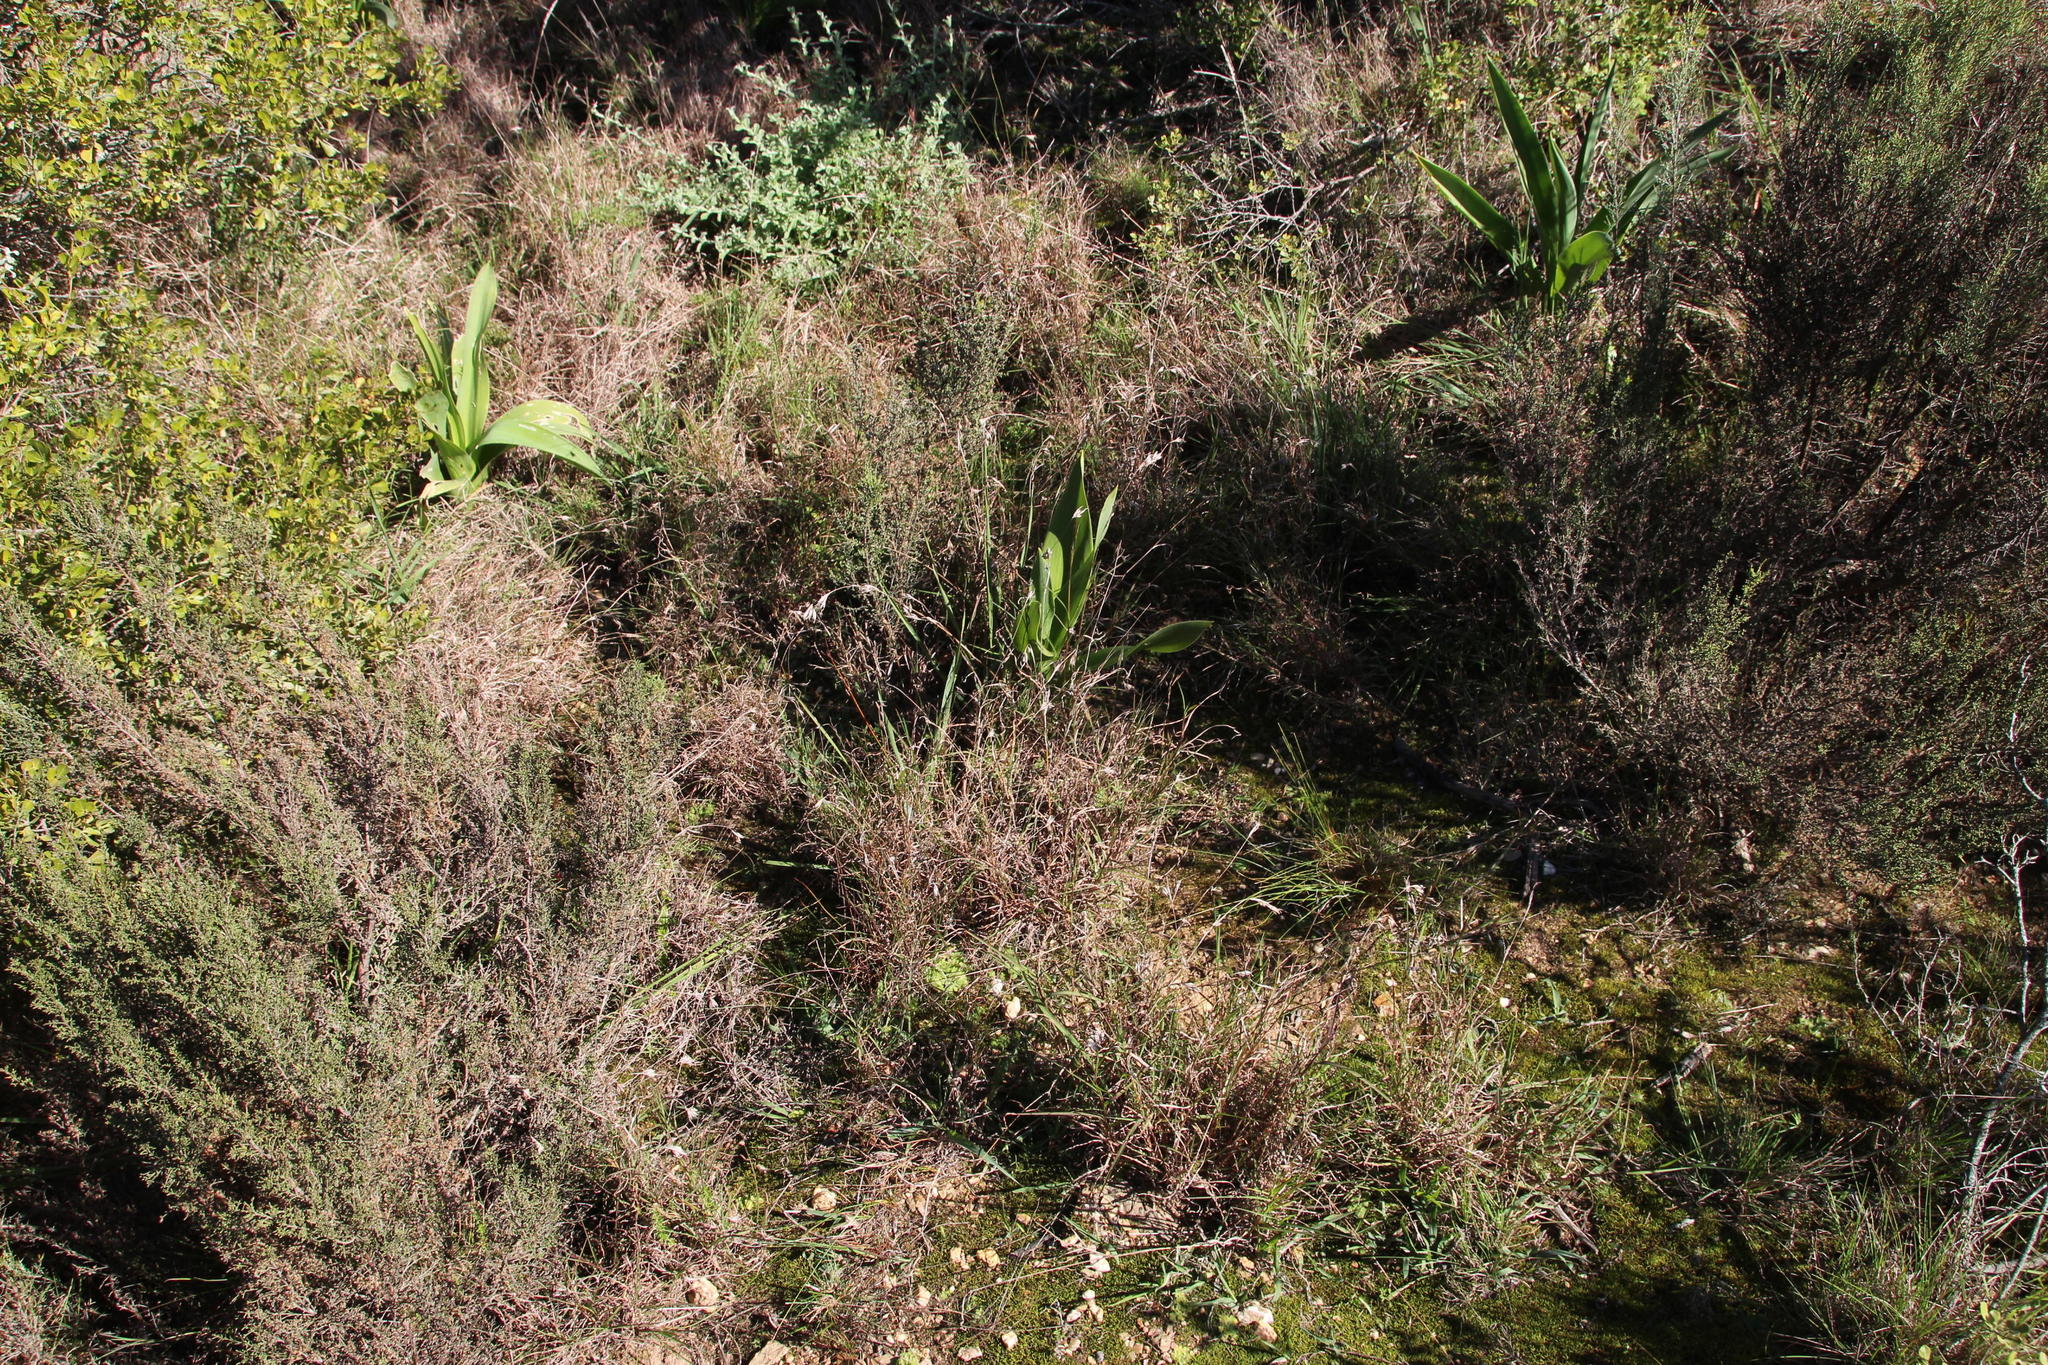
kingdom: Plantae
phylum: Tracheophyta
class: Liliopsida
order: Poales
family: Poaceae
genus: Themeda
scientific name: Themeda triandra
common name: Kangaroo grass
